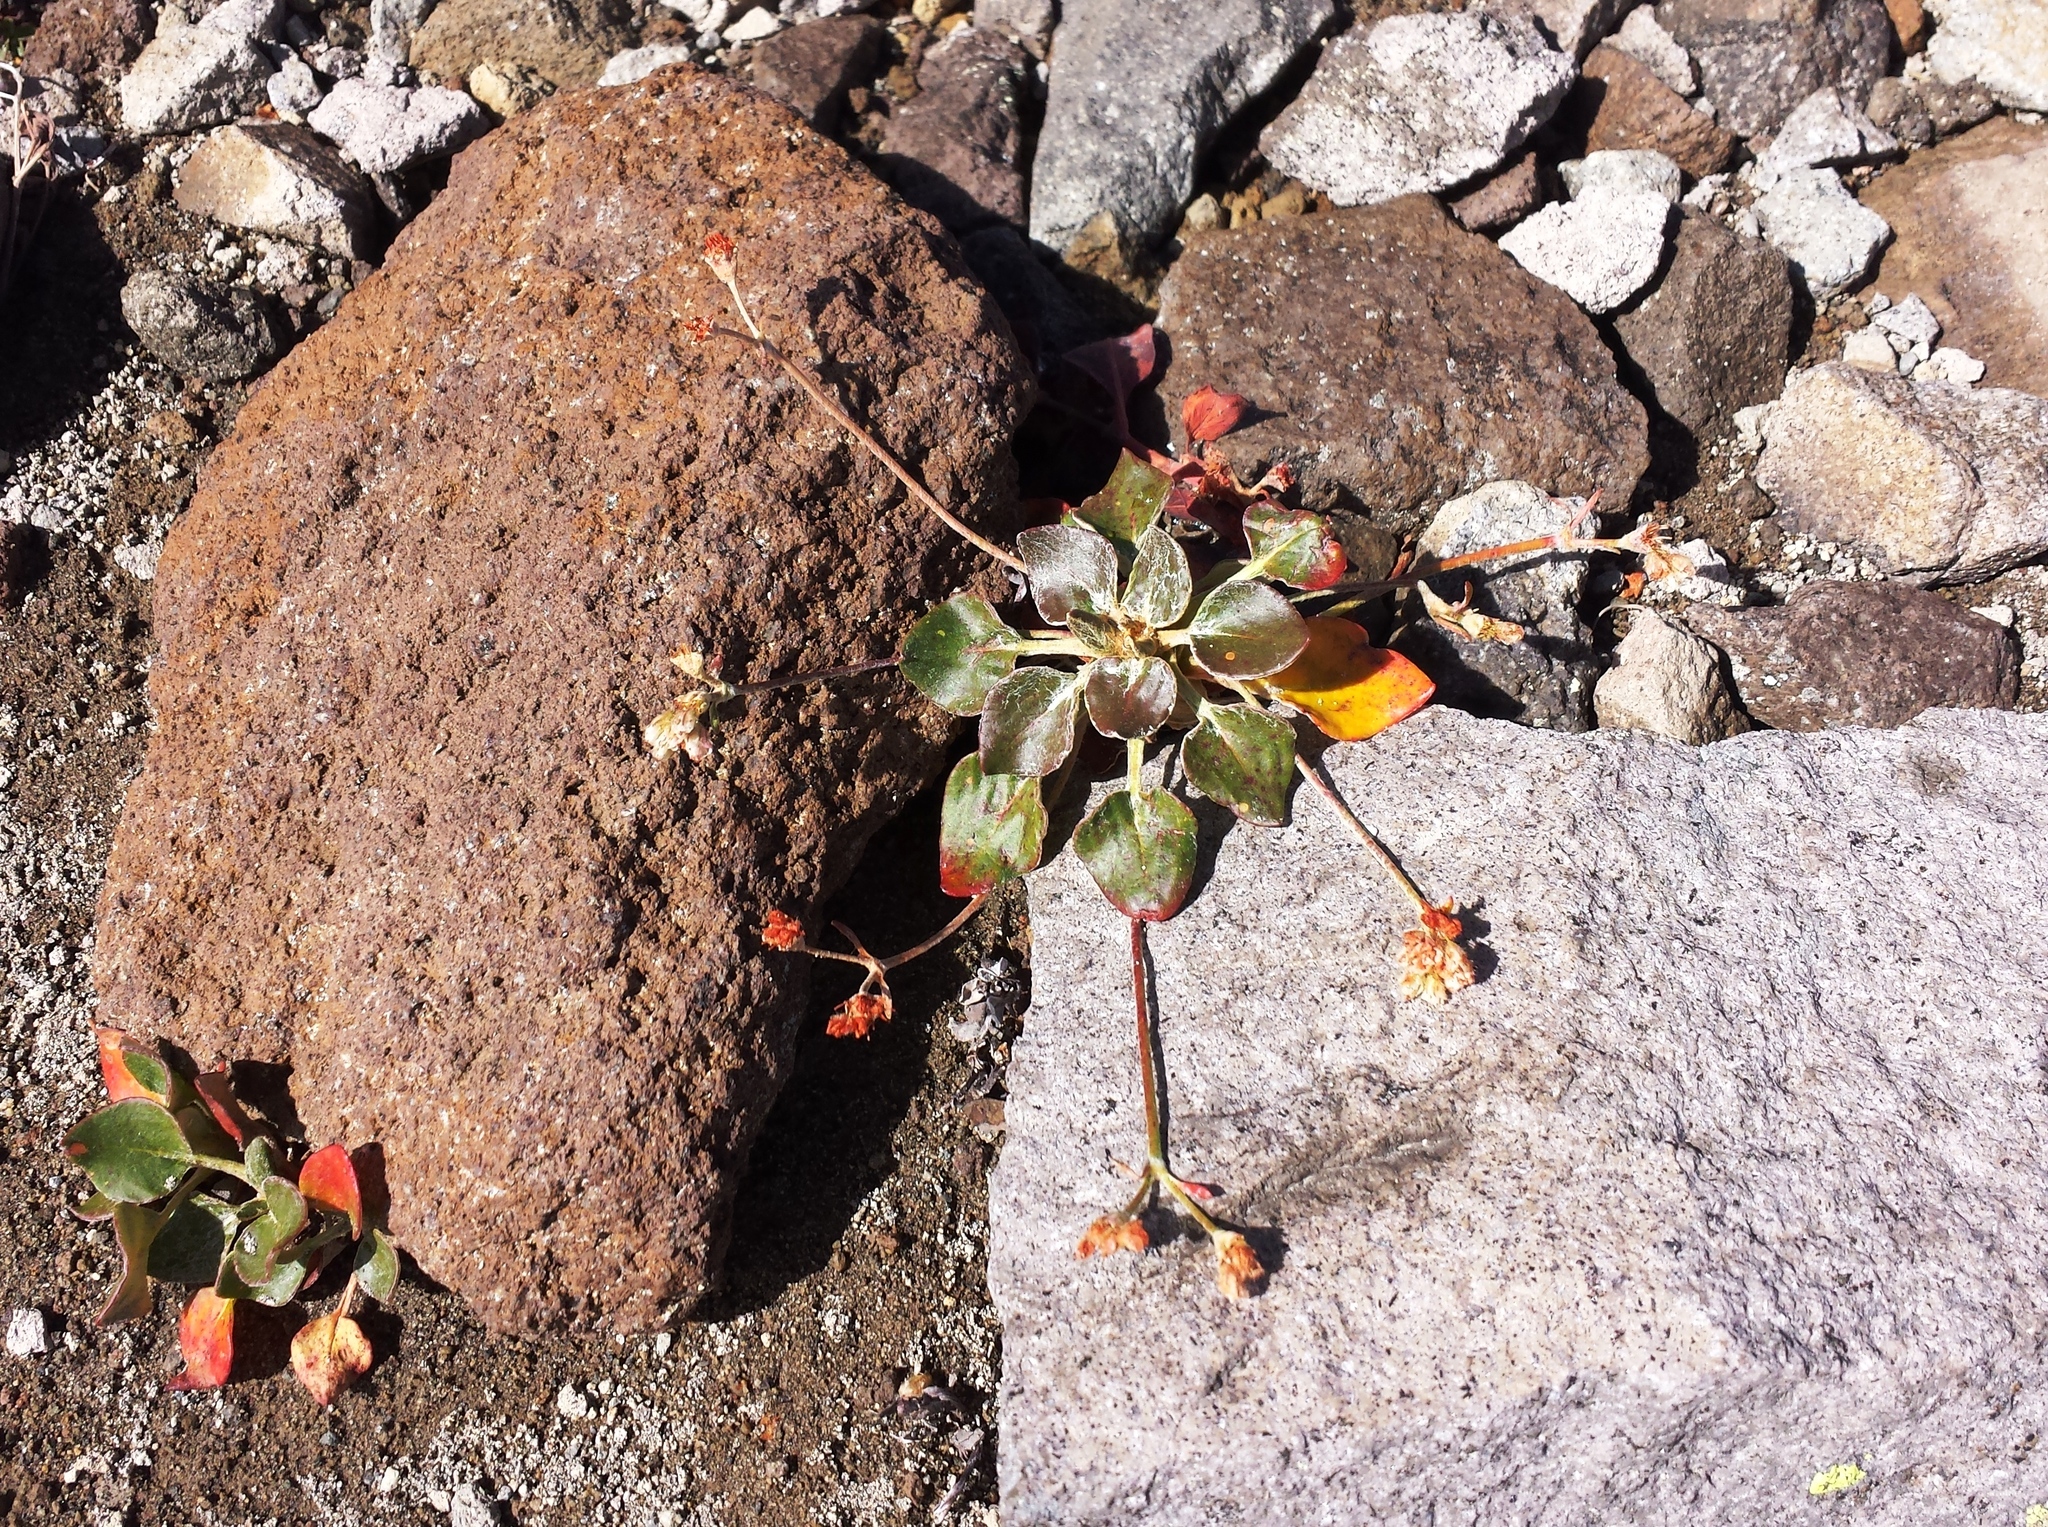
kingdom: Plantae
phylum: Tracheophyta
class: Magnoliopsida
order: Caryophyllales
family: Polygonaceae
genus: Eriogonum
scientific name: Eriogonum pyrolifolium
